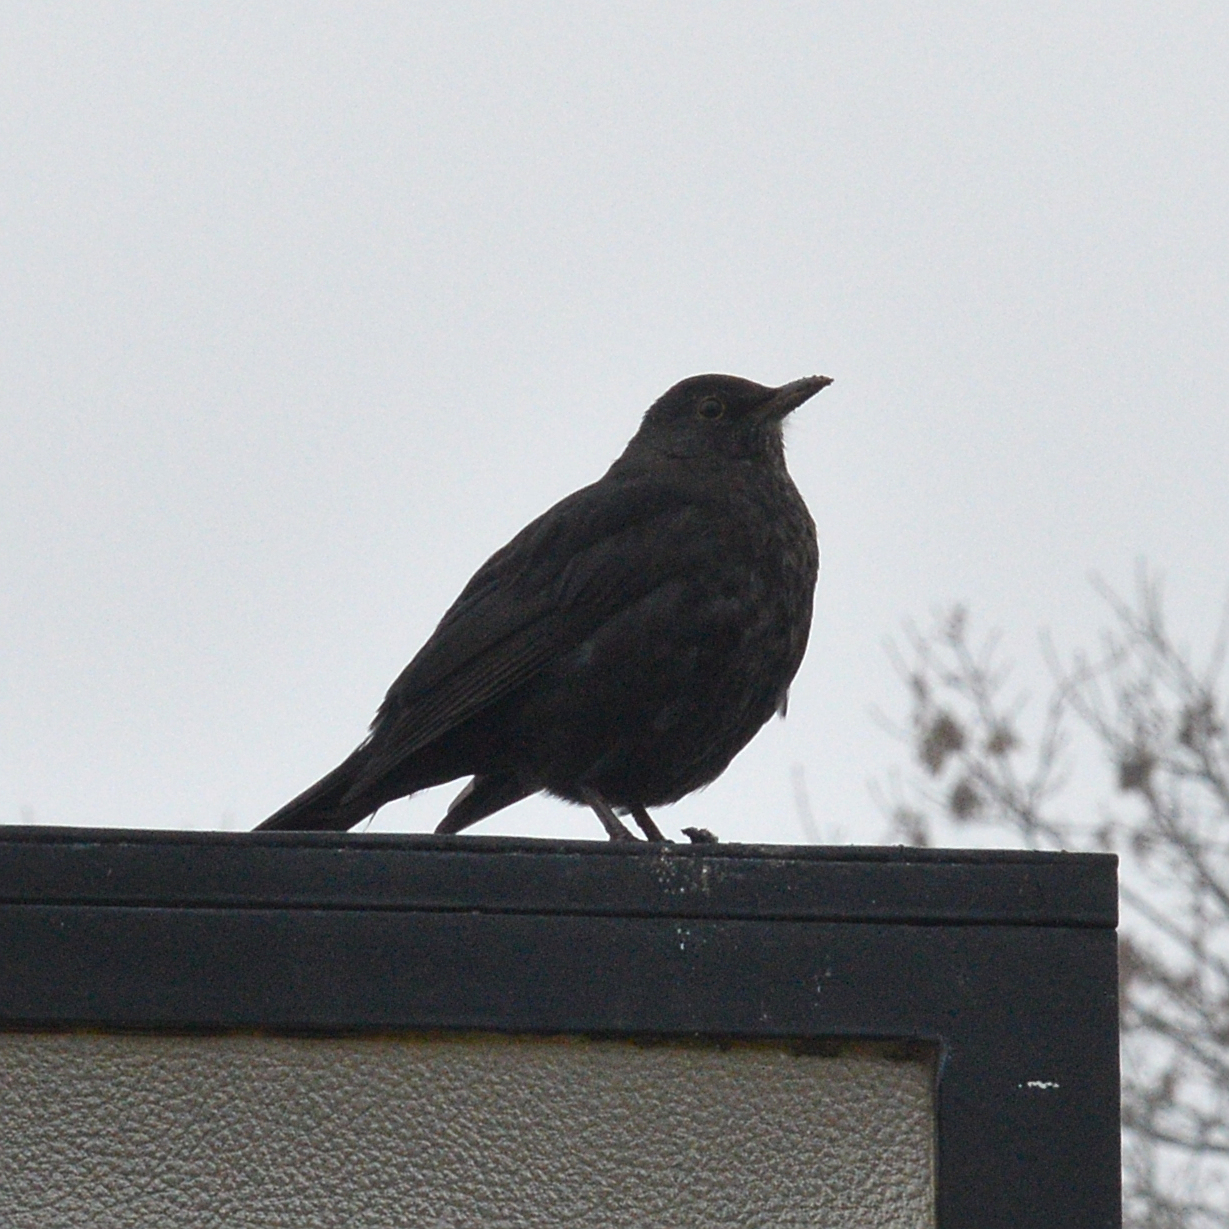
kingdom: Animalia
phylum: Chordata
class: Aves
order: Passeriformes
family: Turdidae
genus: Turdus
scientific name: Turdus merula
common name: Common blackbird
